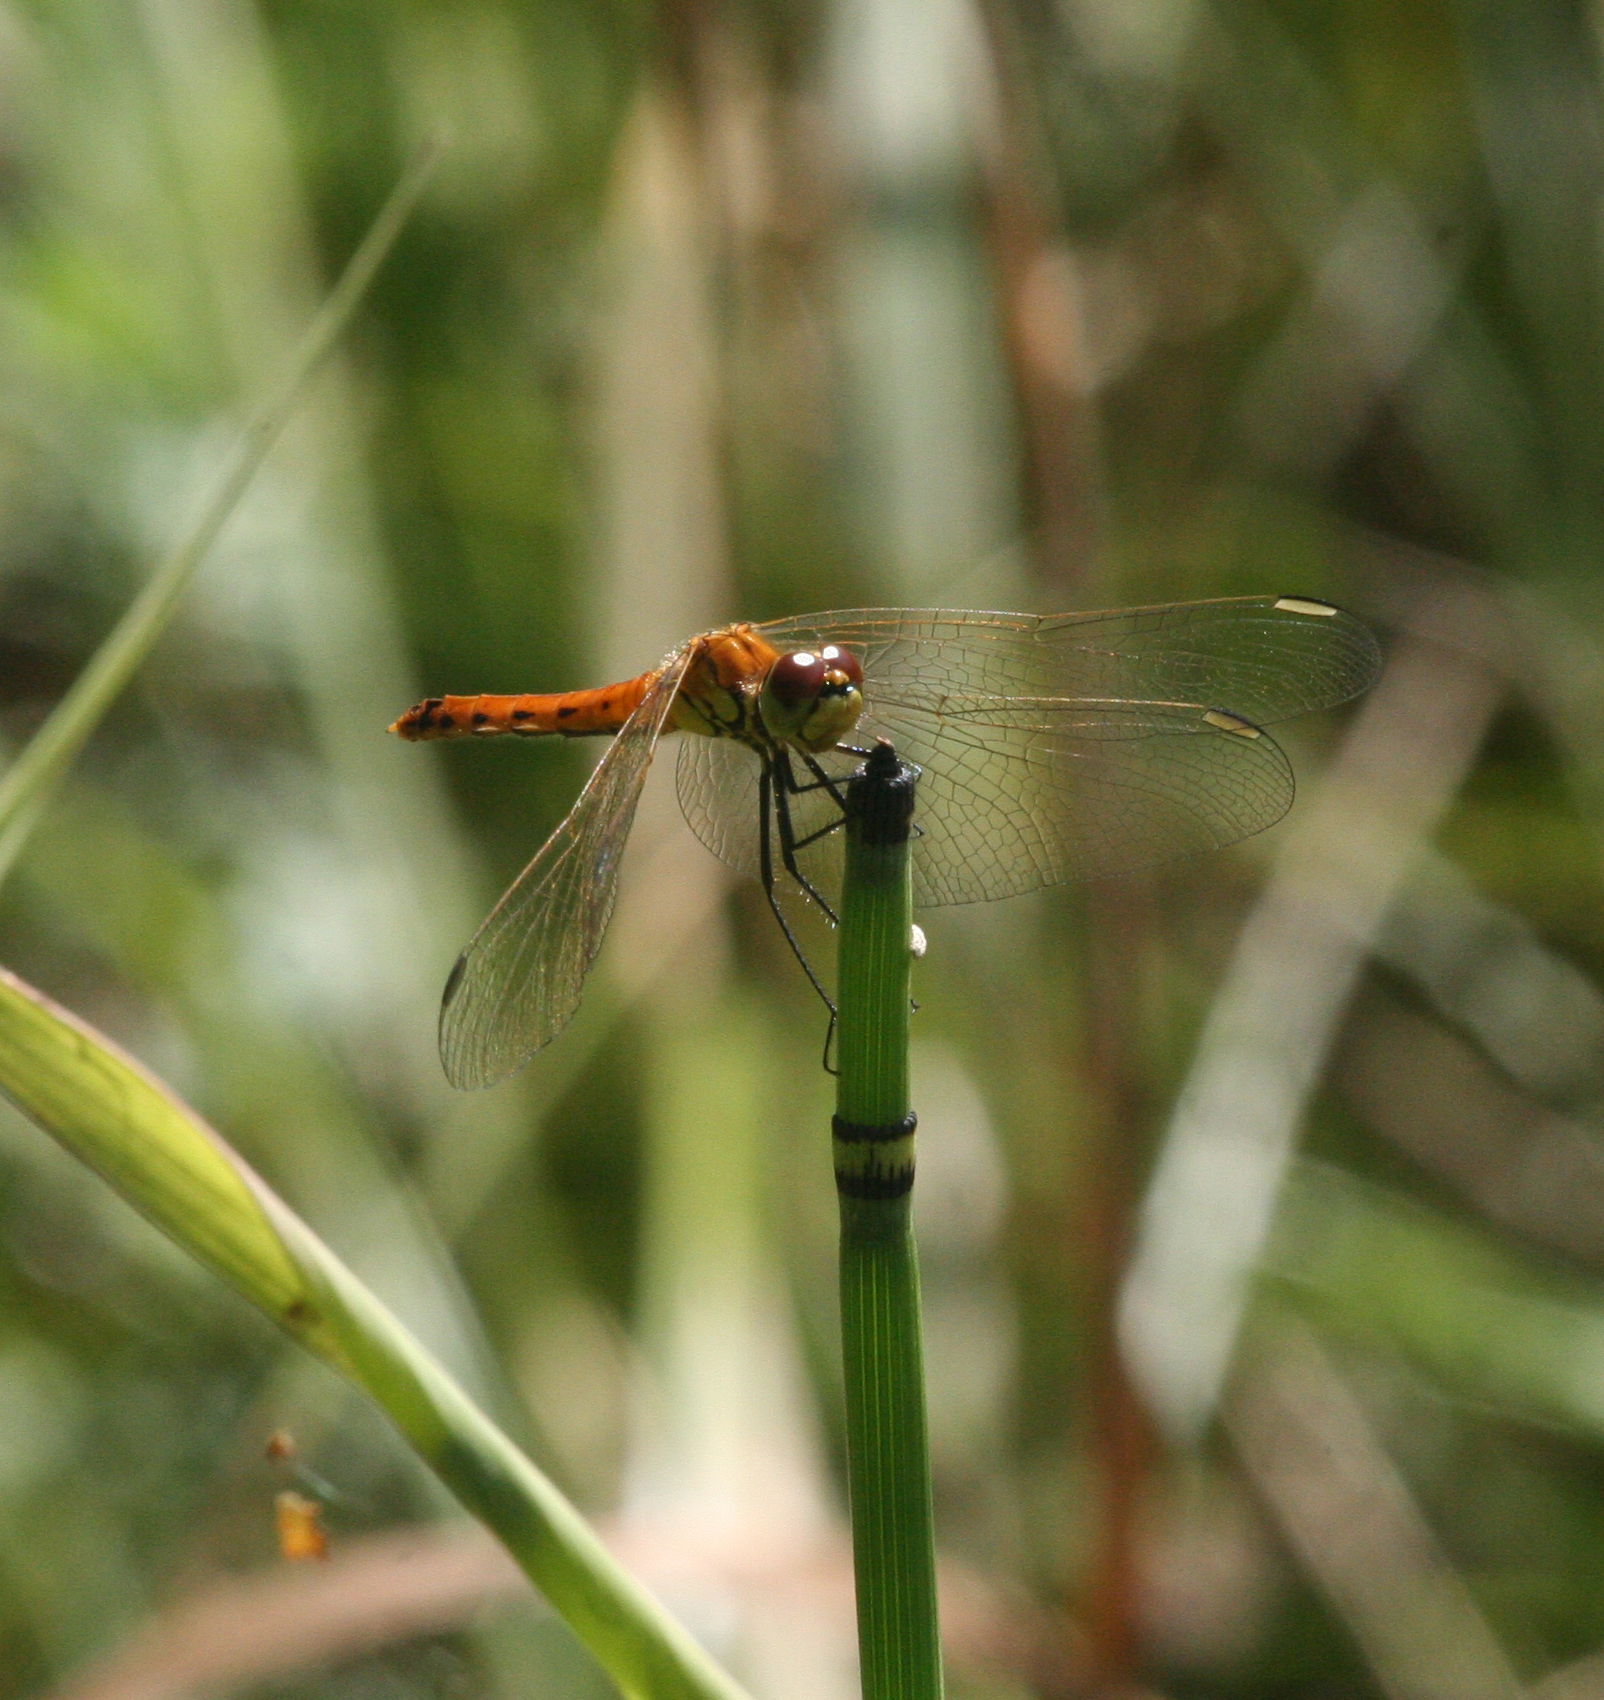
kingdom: Animalia
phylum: Arthropoda
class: Insecta
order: Odonata
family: Libellulidae
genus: Sympetrum
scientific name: Sympetrum depressiusculum
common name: Spotted darter
